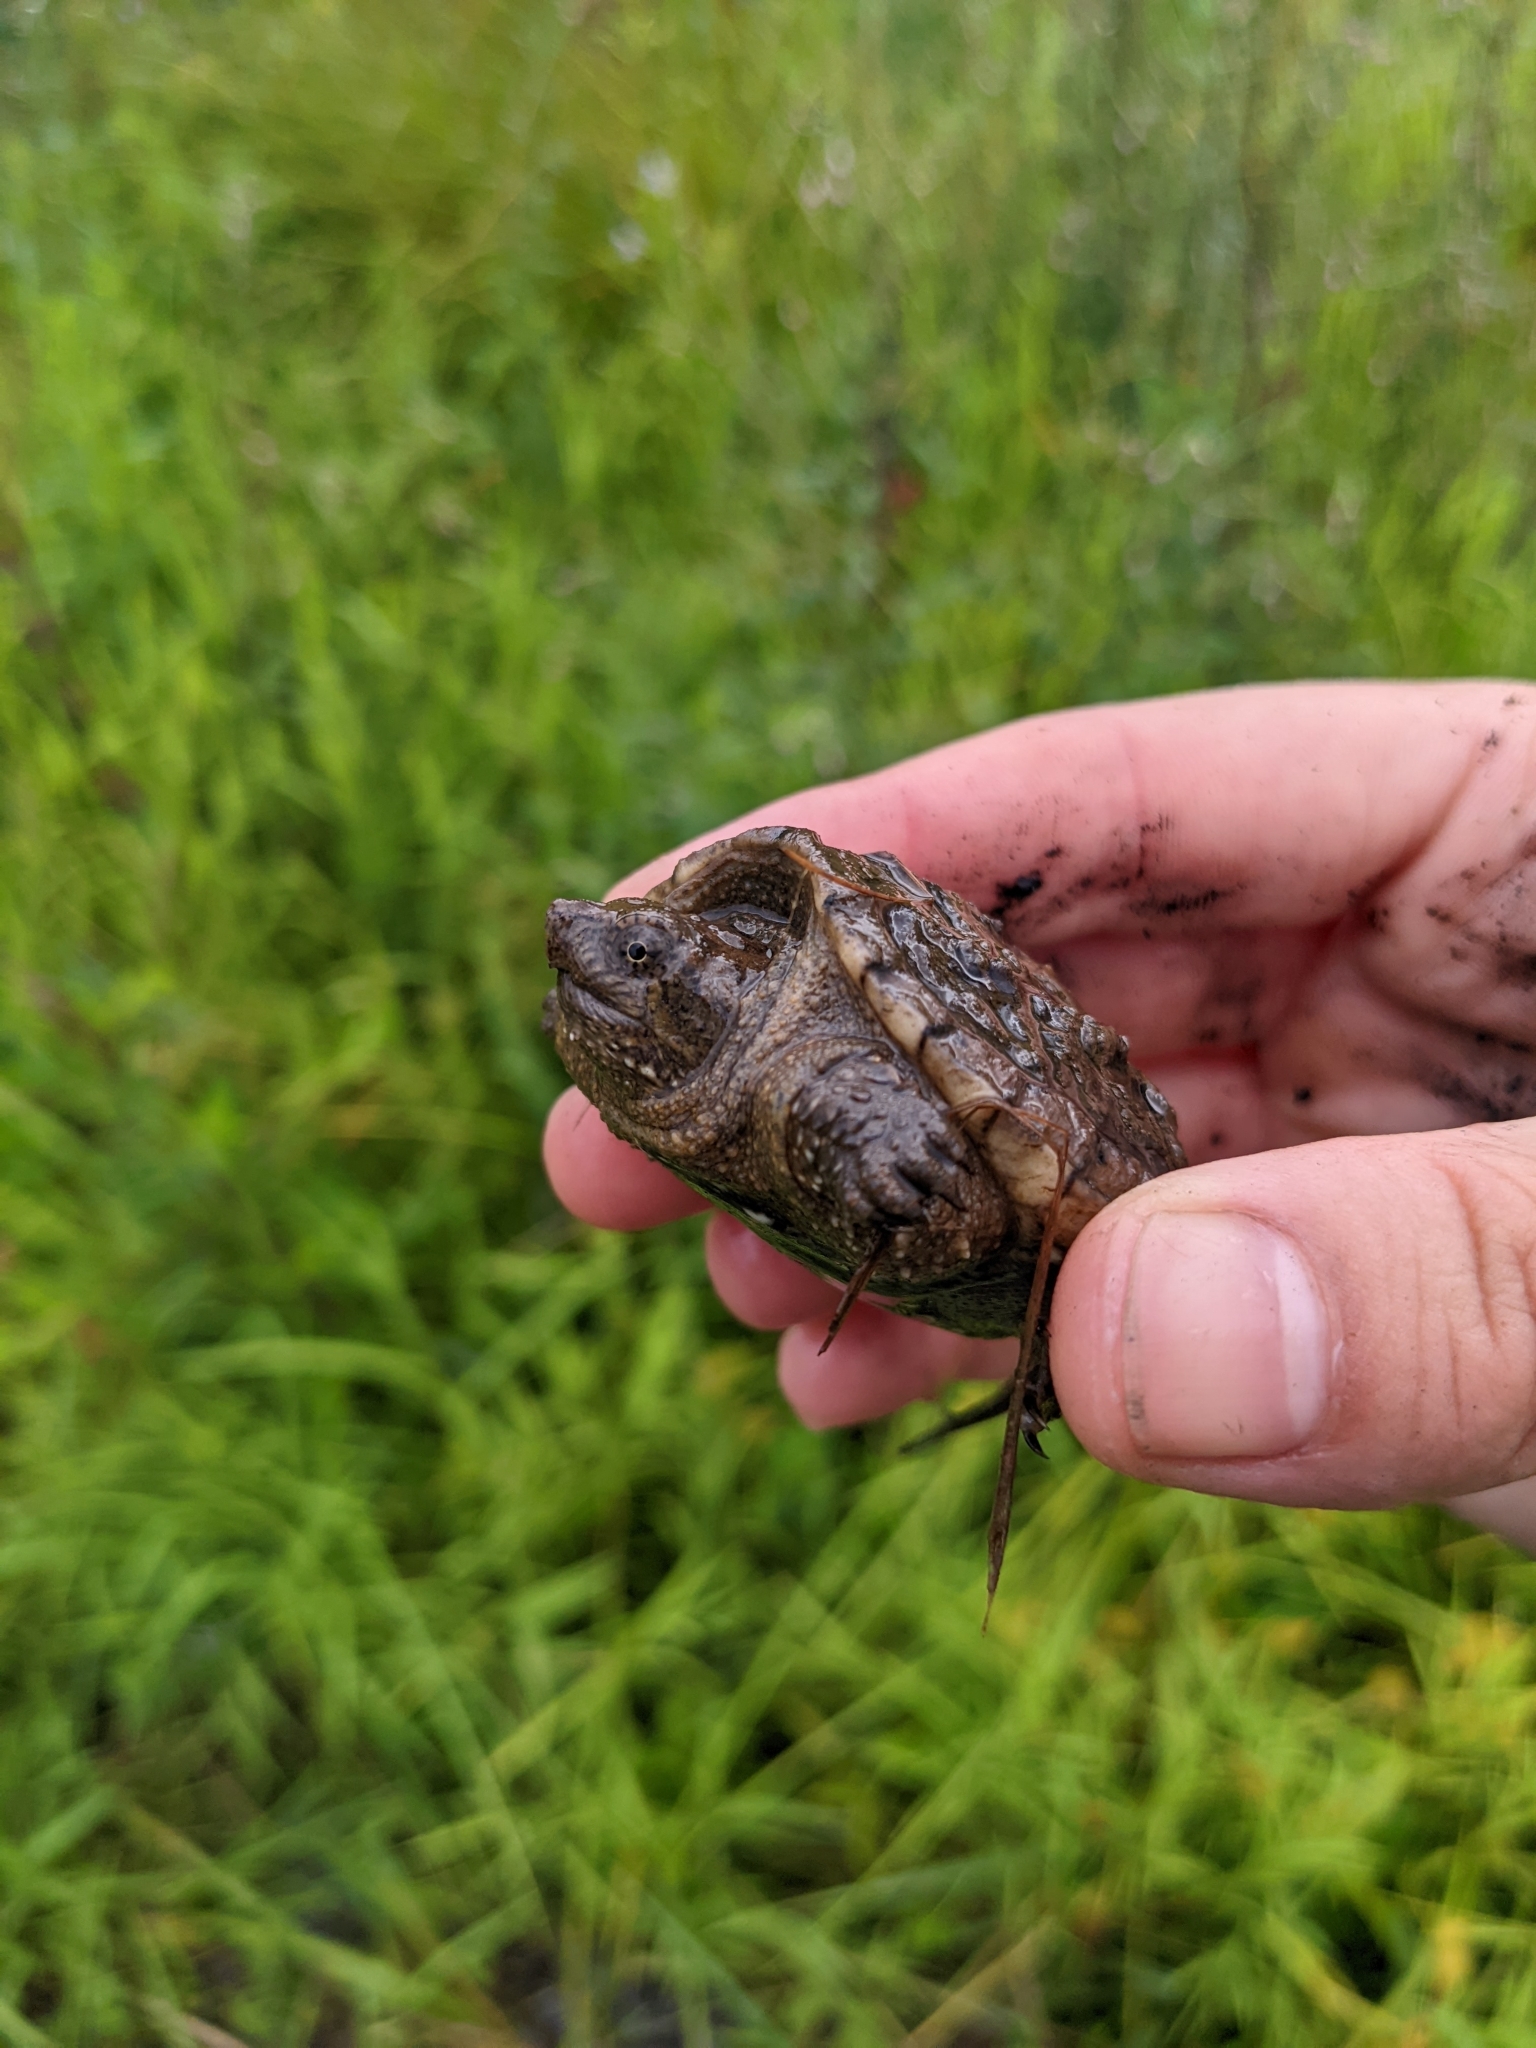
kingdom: Animalia
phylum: Chordata
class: Testudines
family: Chelydridae
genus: Chelydra
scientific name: Chelydra serpentina
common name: Common snapping turtle
